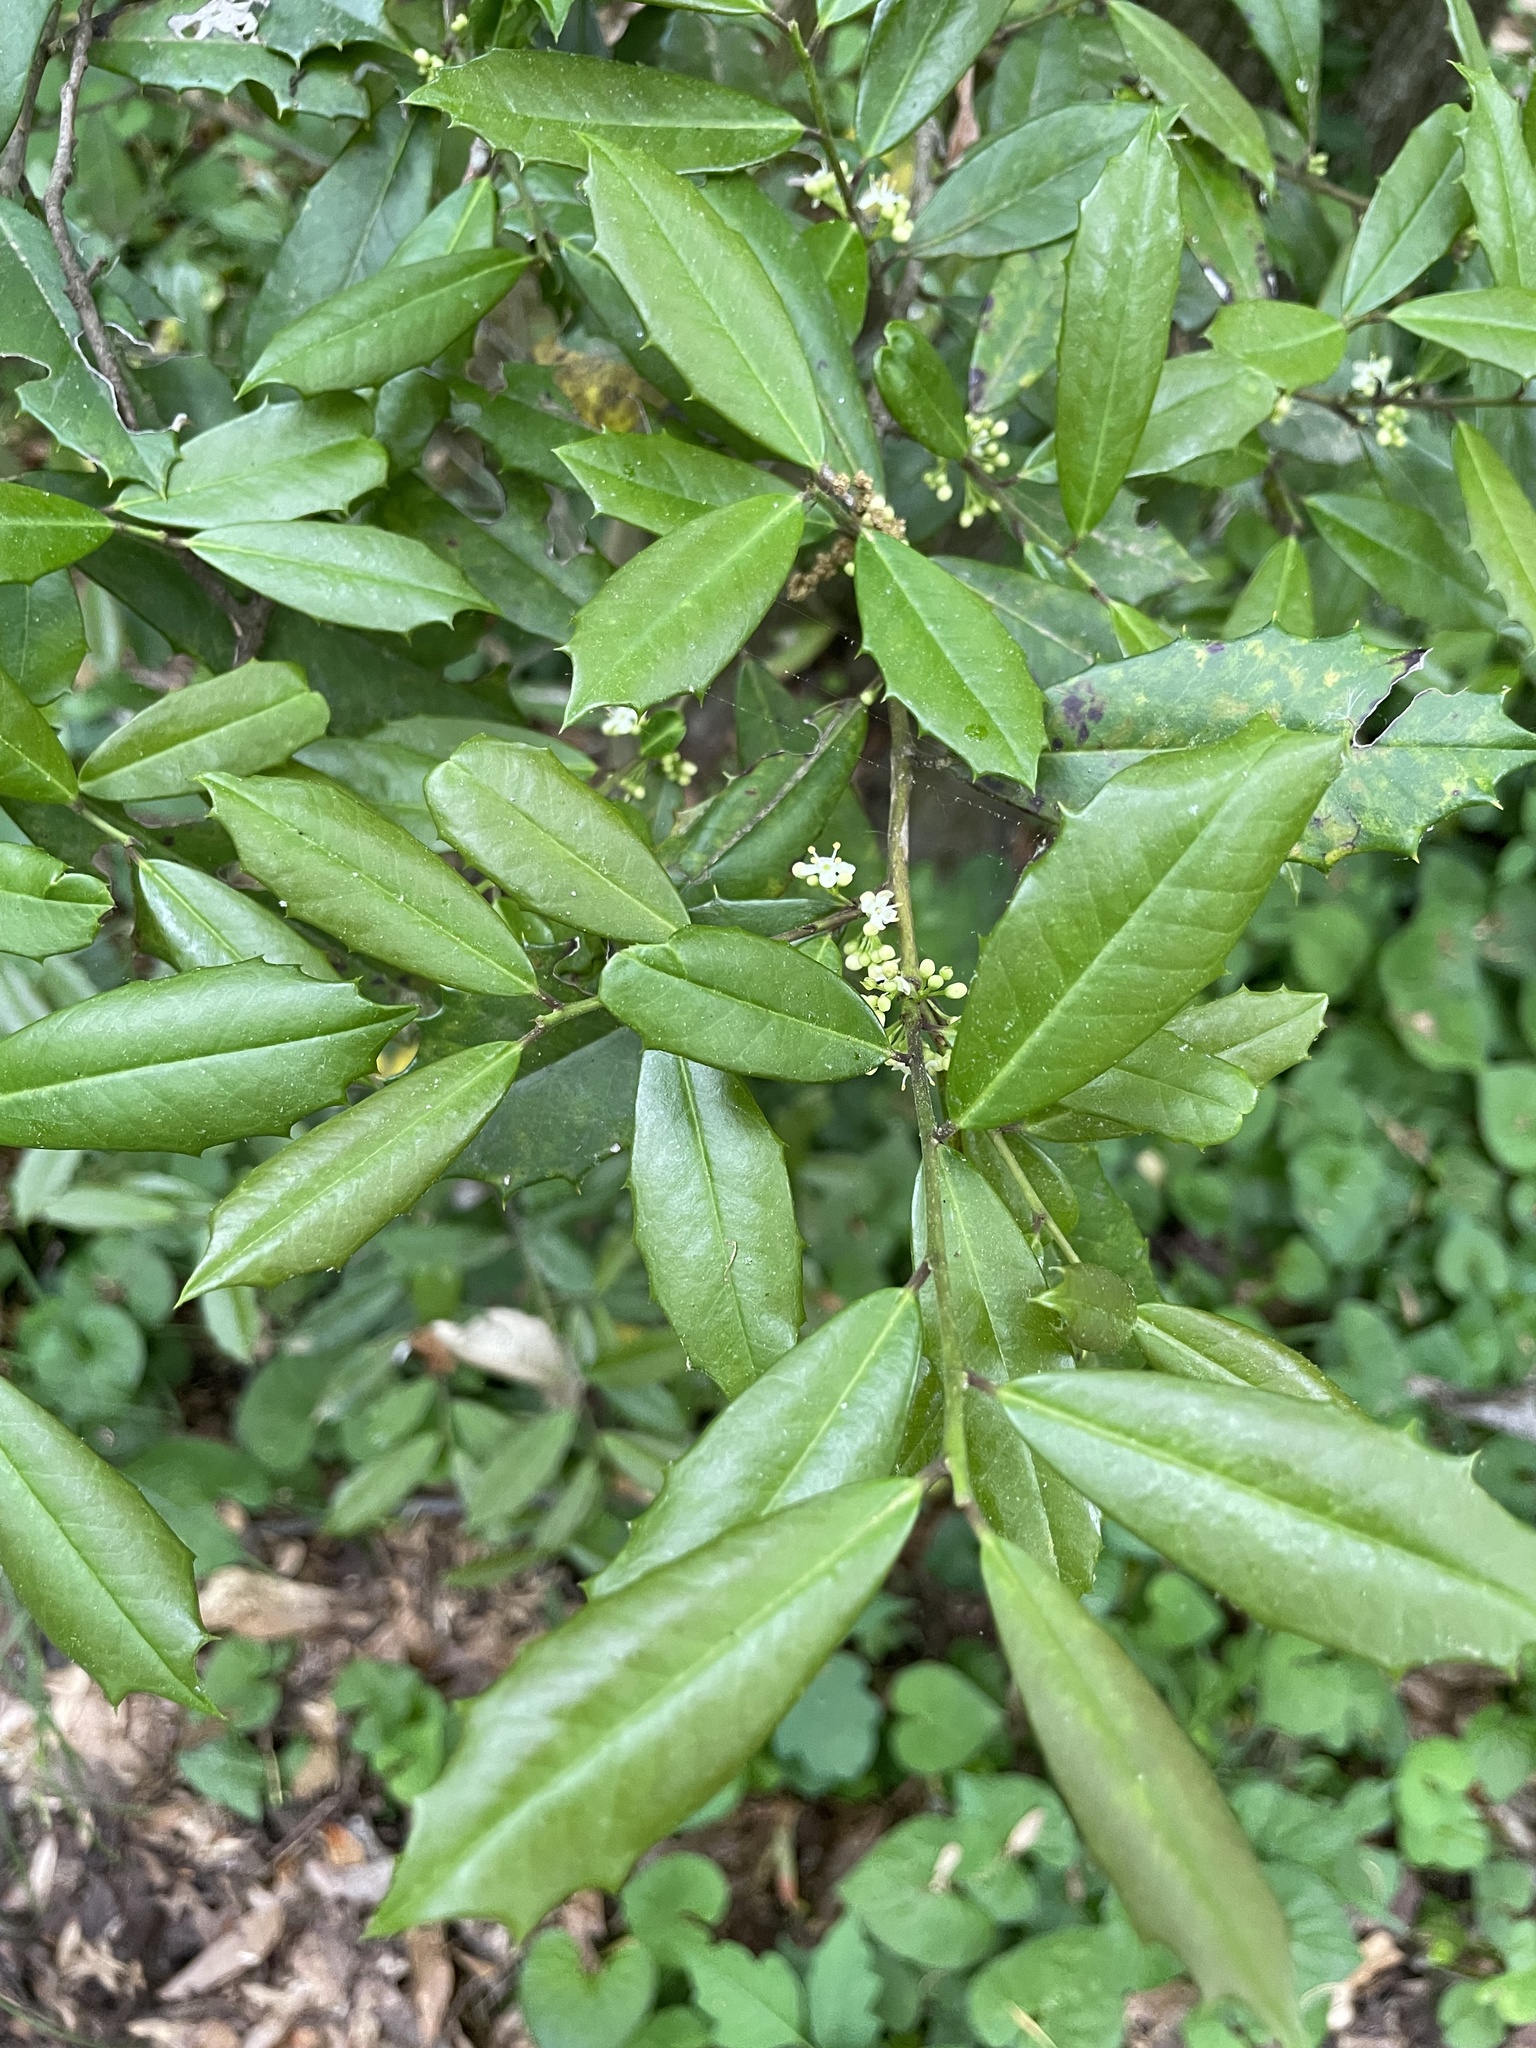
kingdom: Plantae
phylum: Tracheophyta
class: Magnoliopsida
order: Aquifoliales
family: Aquifoliaceae
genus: Ilex
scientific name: Ilex opaca
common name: American holly
